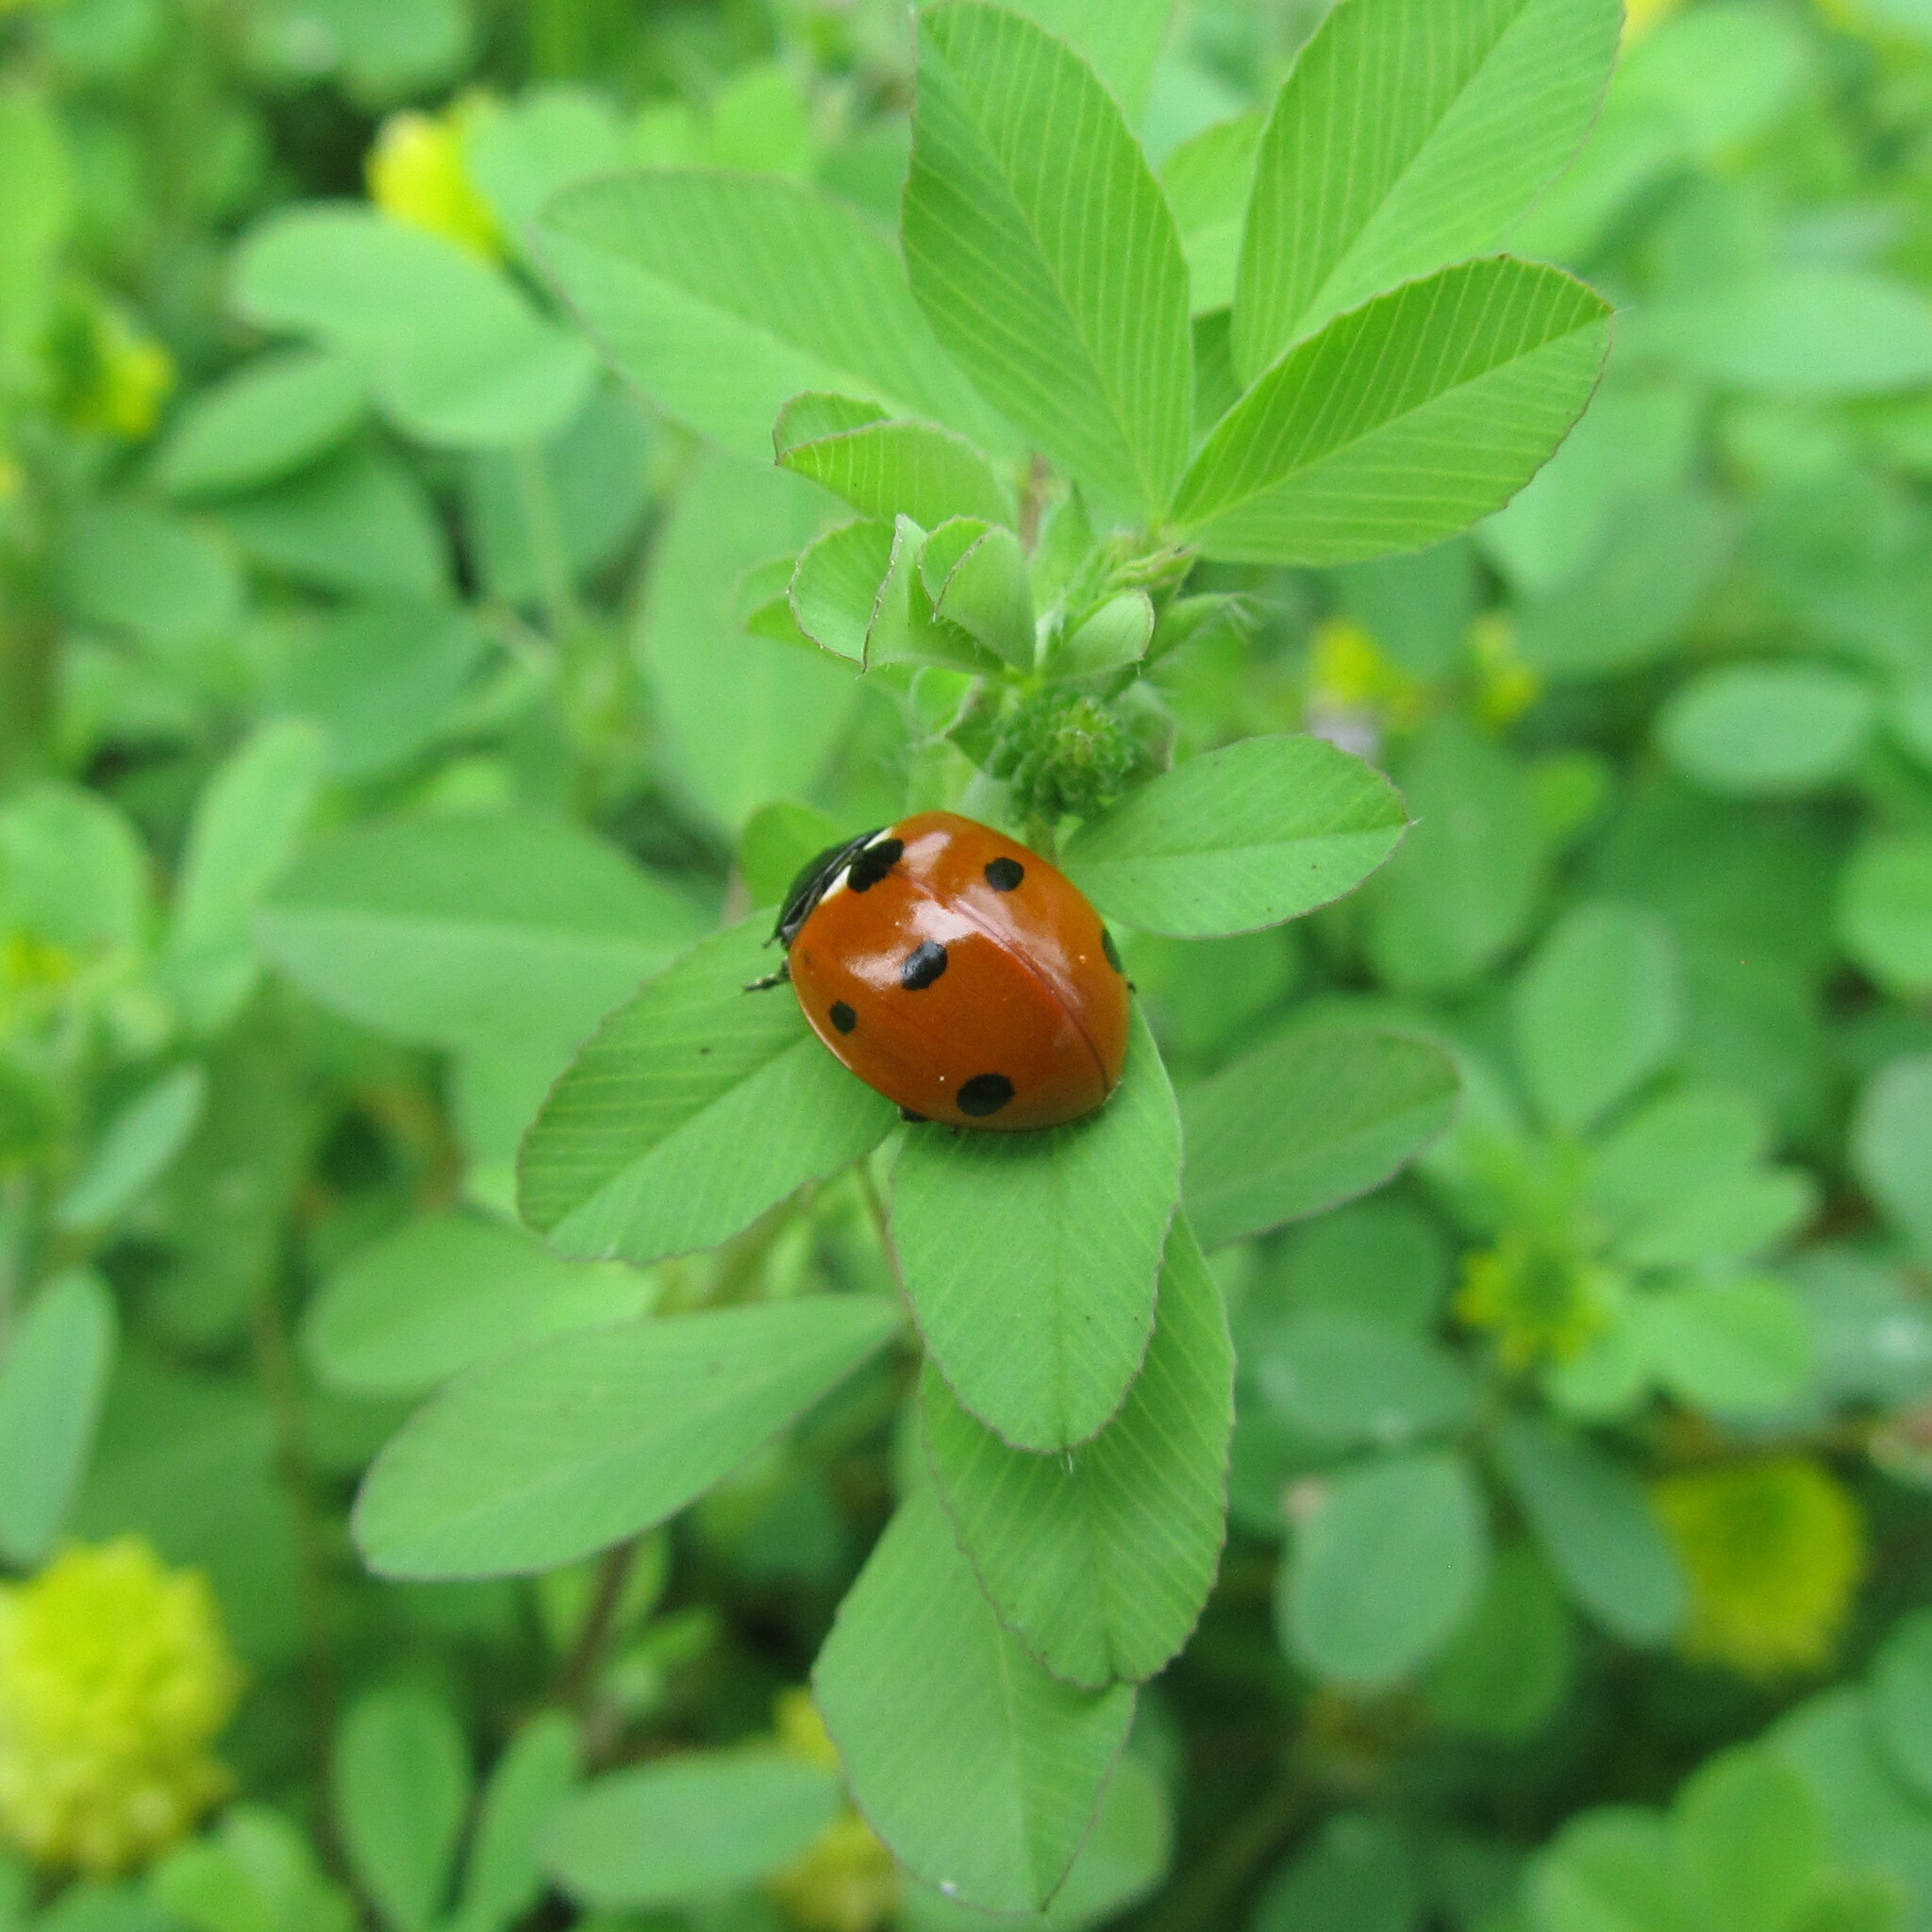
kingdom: Animalia
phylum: Arthropoda
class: Insecta
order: Coleoptera
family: Coccinellidae
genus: Coccinella
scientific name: Coccinella septempunctata
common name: Sevenspotted lady beetle
